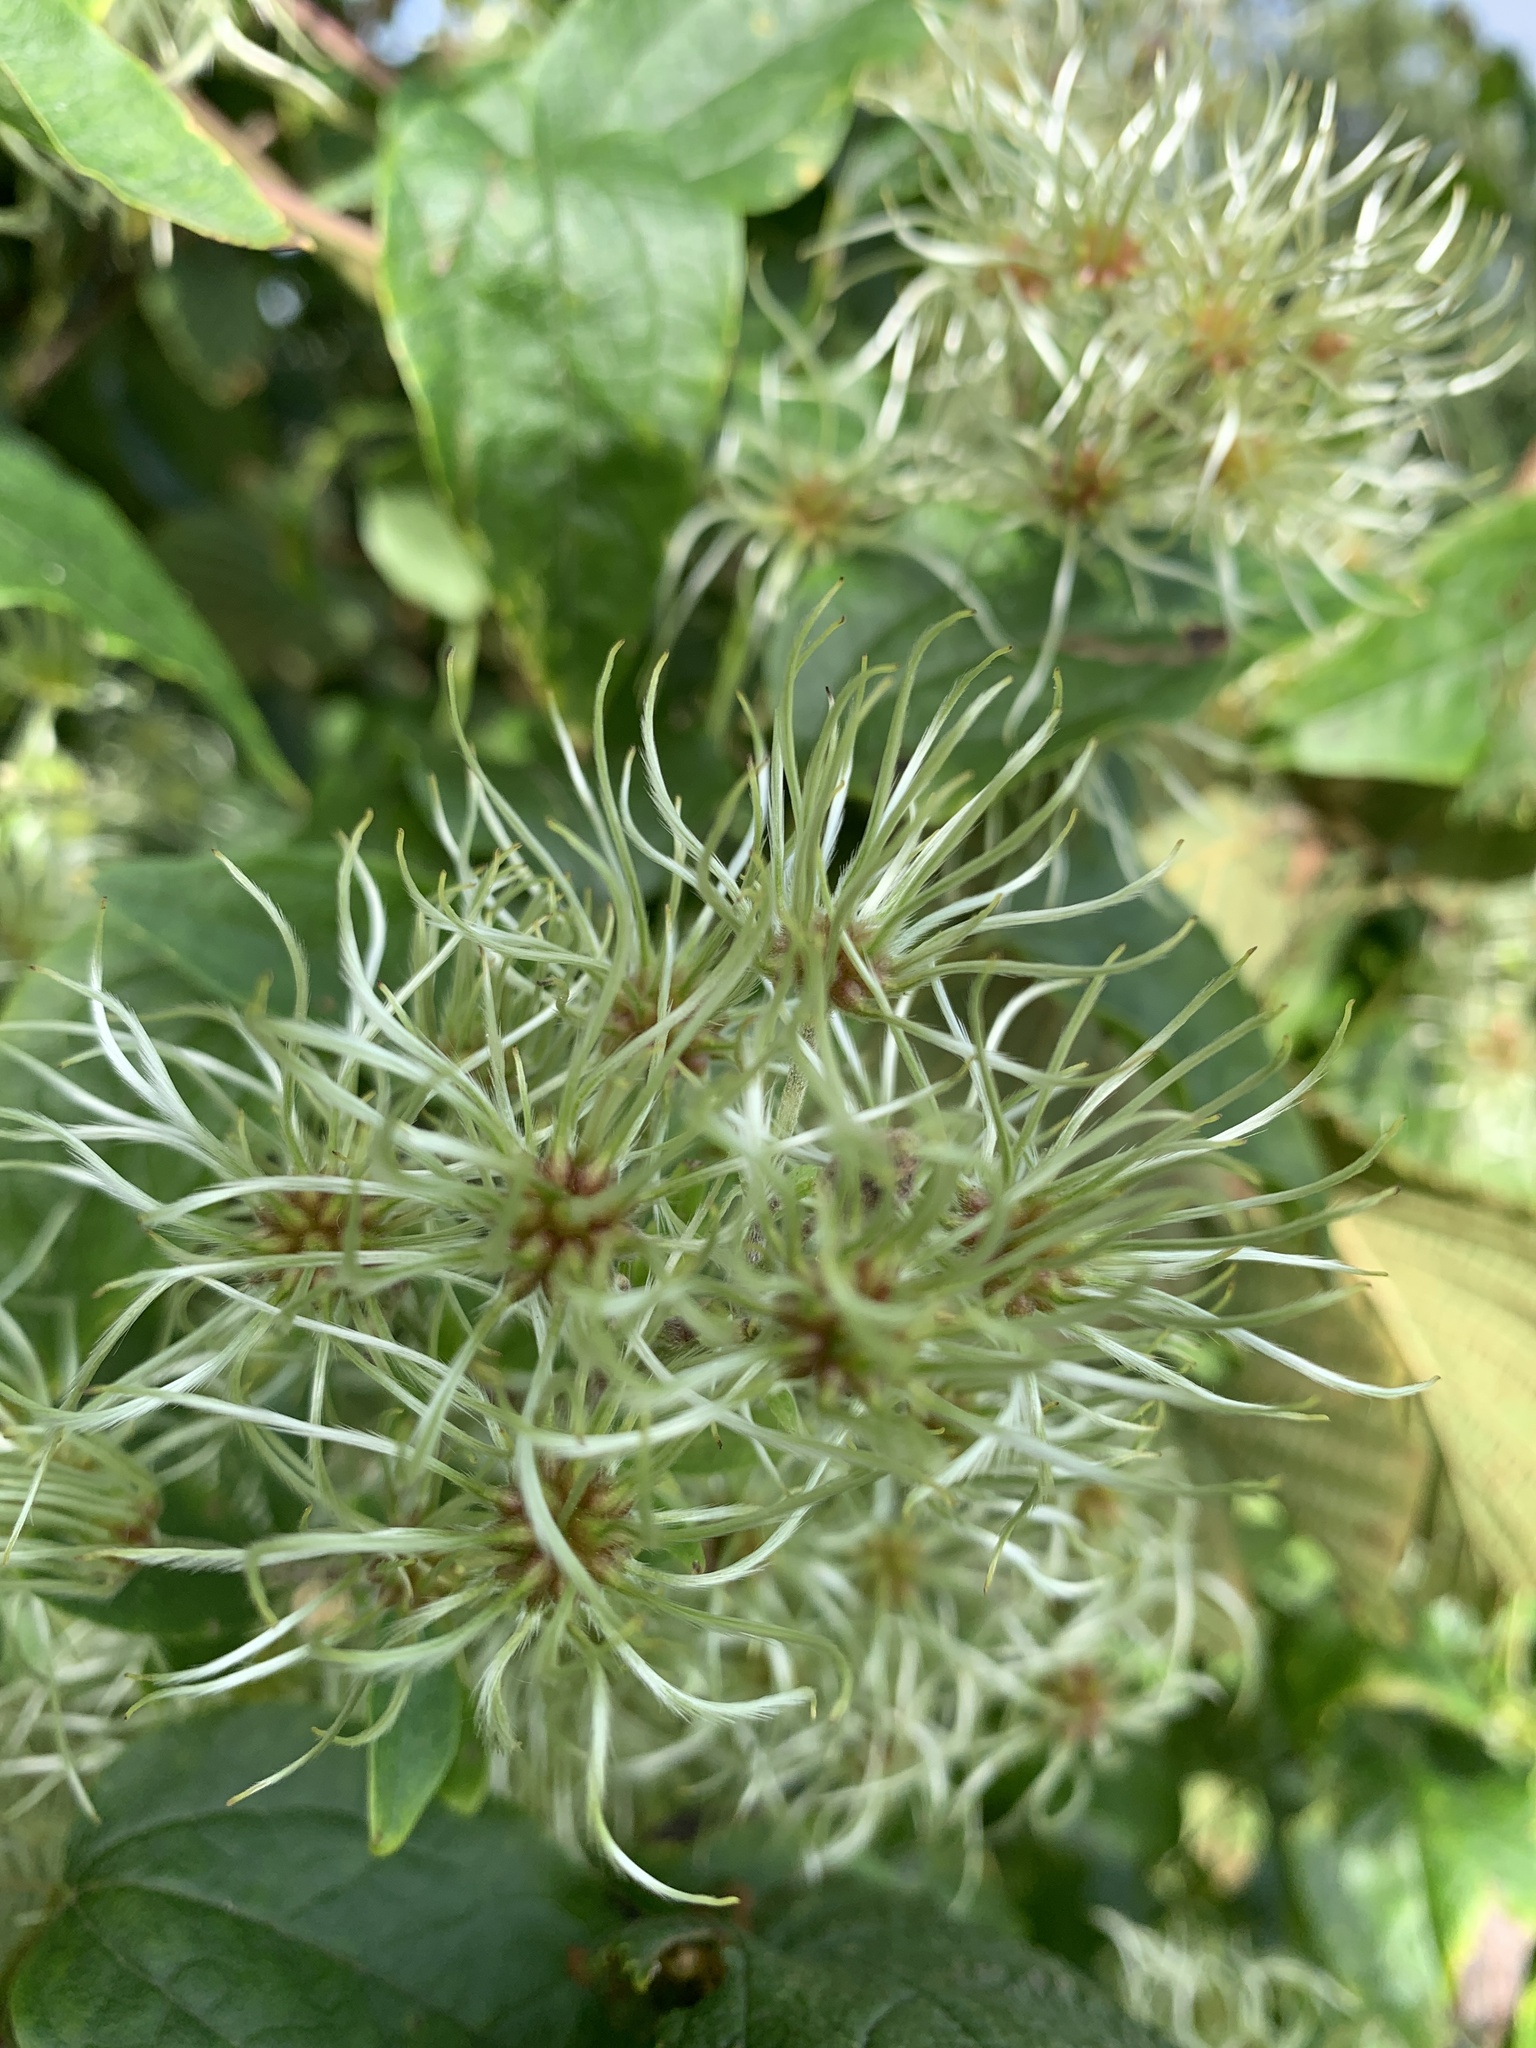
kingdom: Plantae
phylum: Tracheophyta
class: Magnoliopsida
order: Ranunculales
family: Ranunculaceae
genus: Clematis
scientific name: Clematis vitalba
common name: Evergreen clematis
